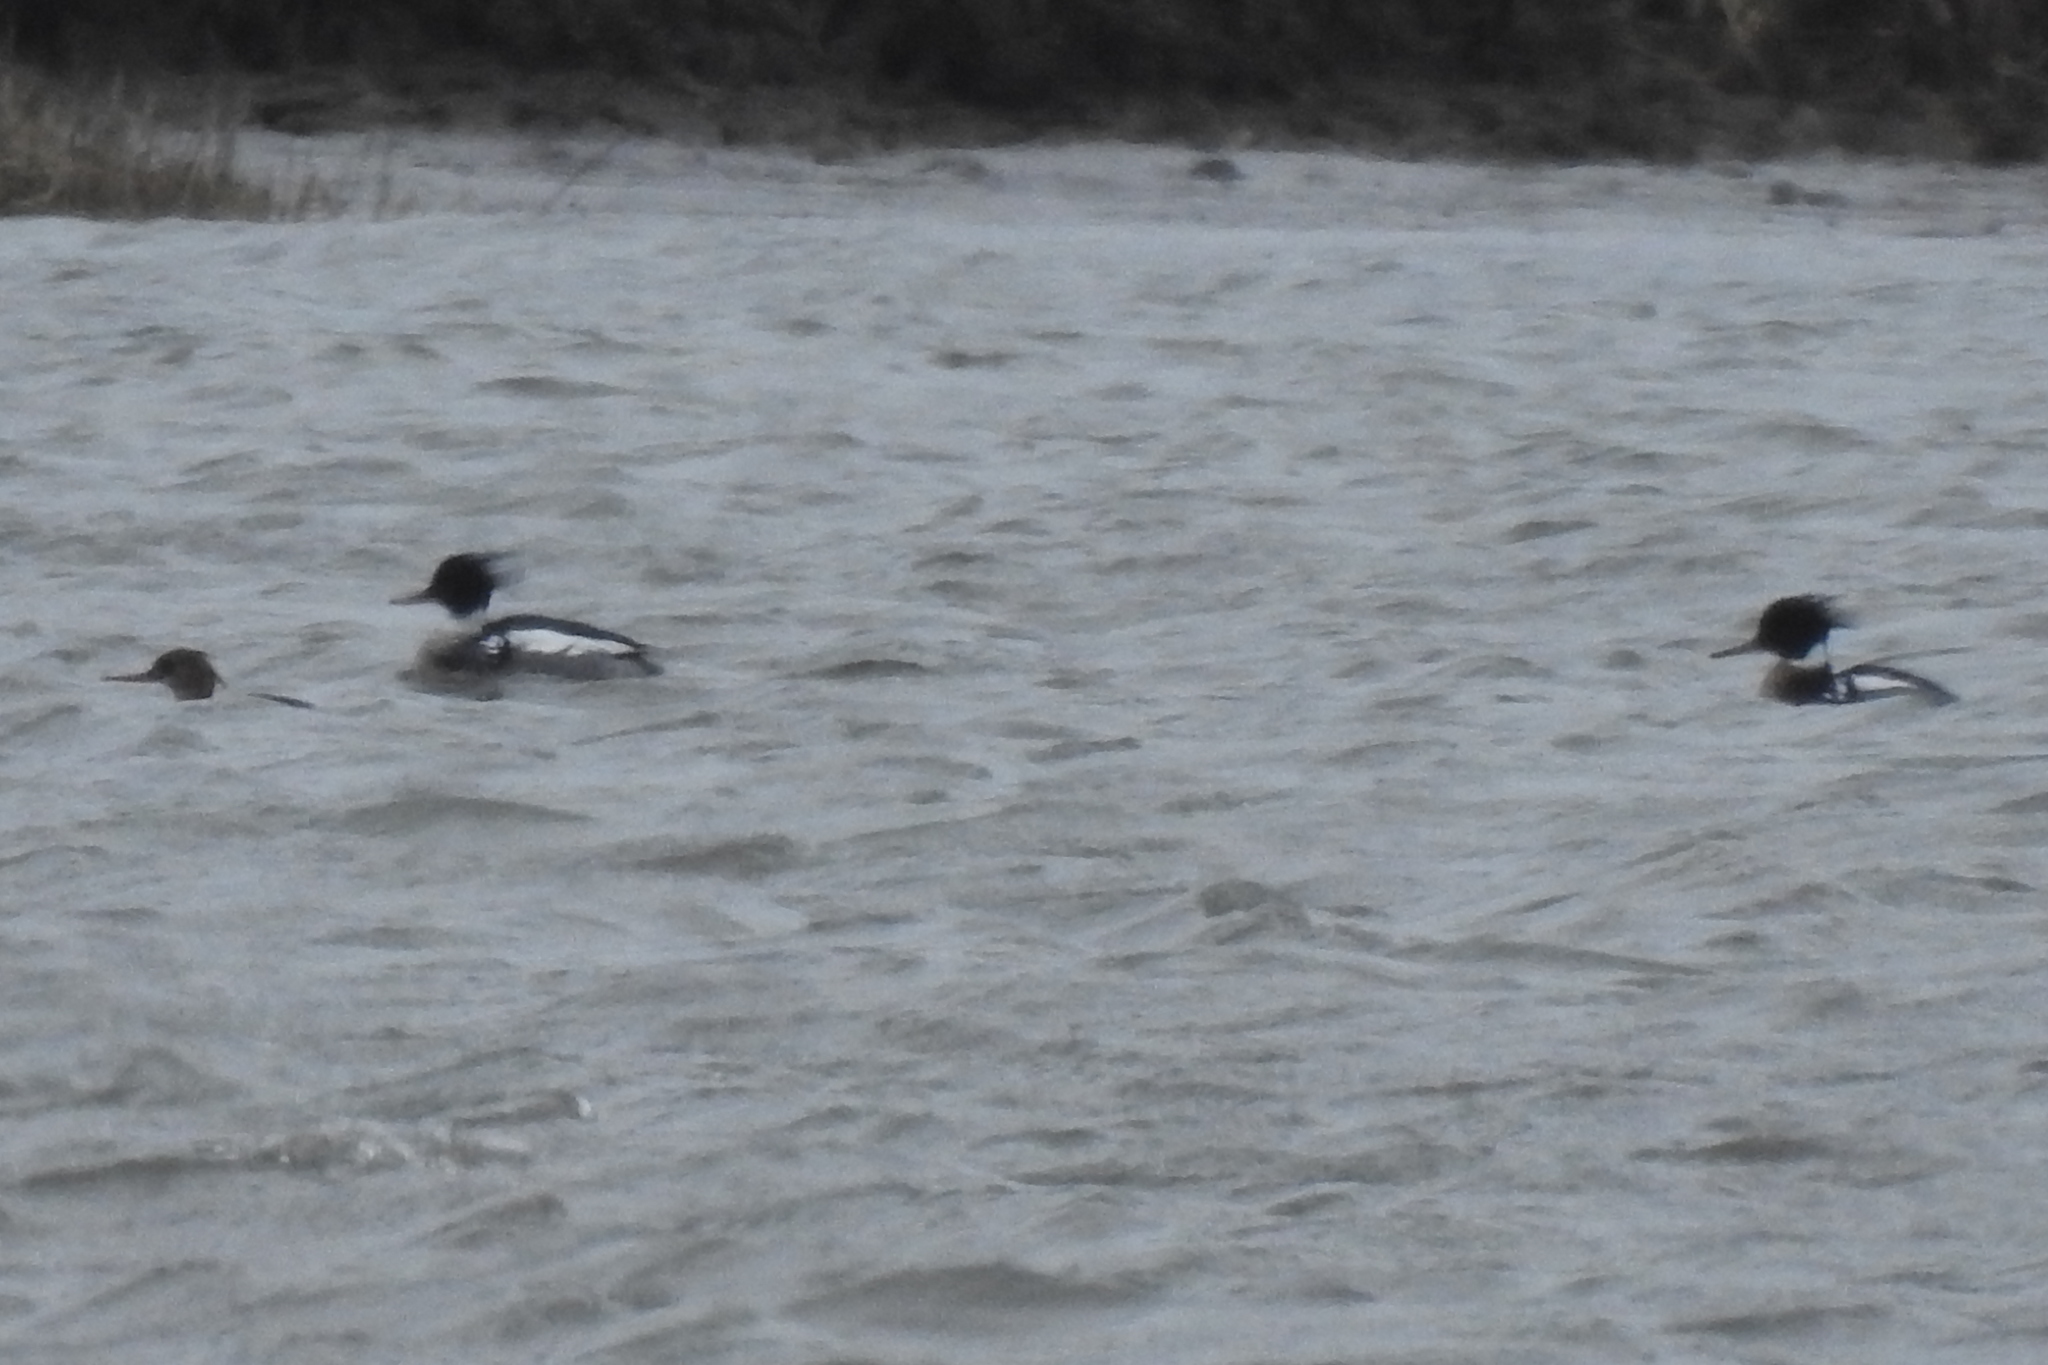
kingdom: Animalia
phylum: Chordata
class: Aves
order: Anseriformes
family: Anatidae
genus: Mergus
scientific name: Mergus serrator
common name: Red-breasted merganser
